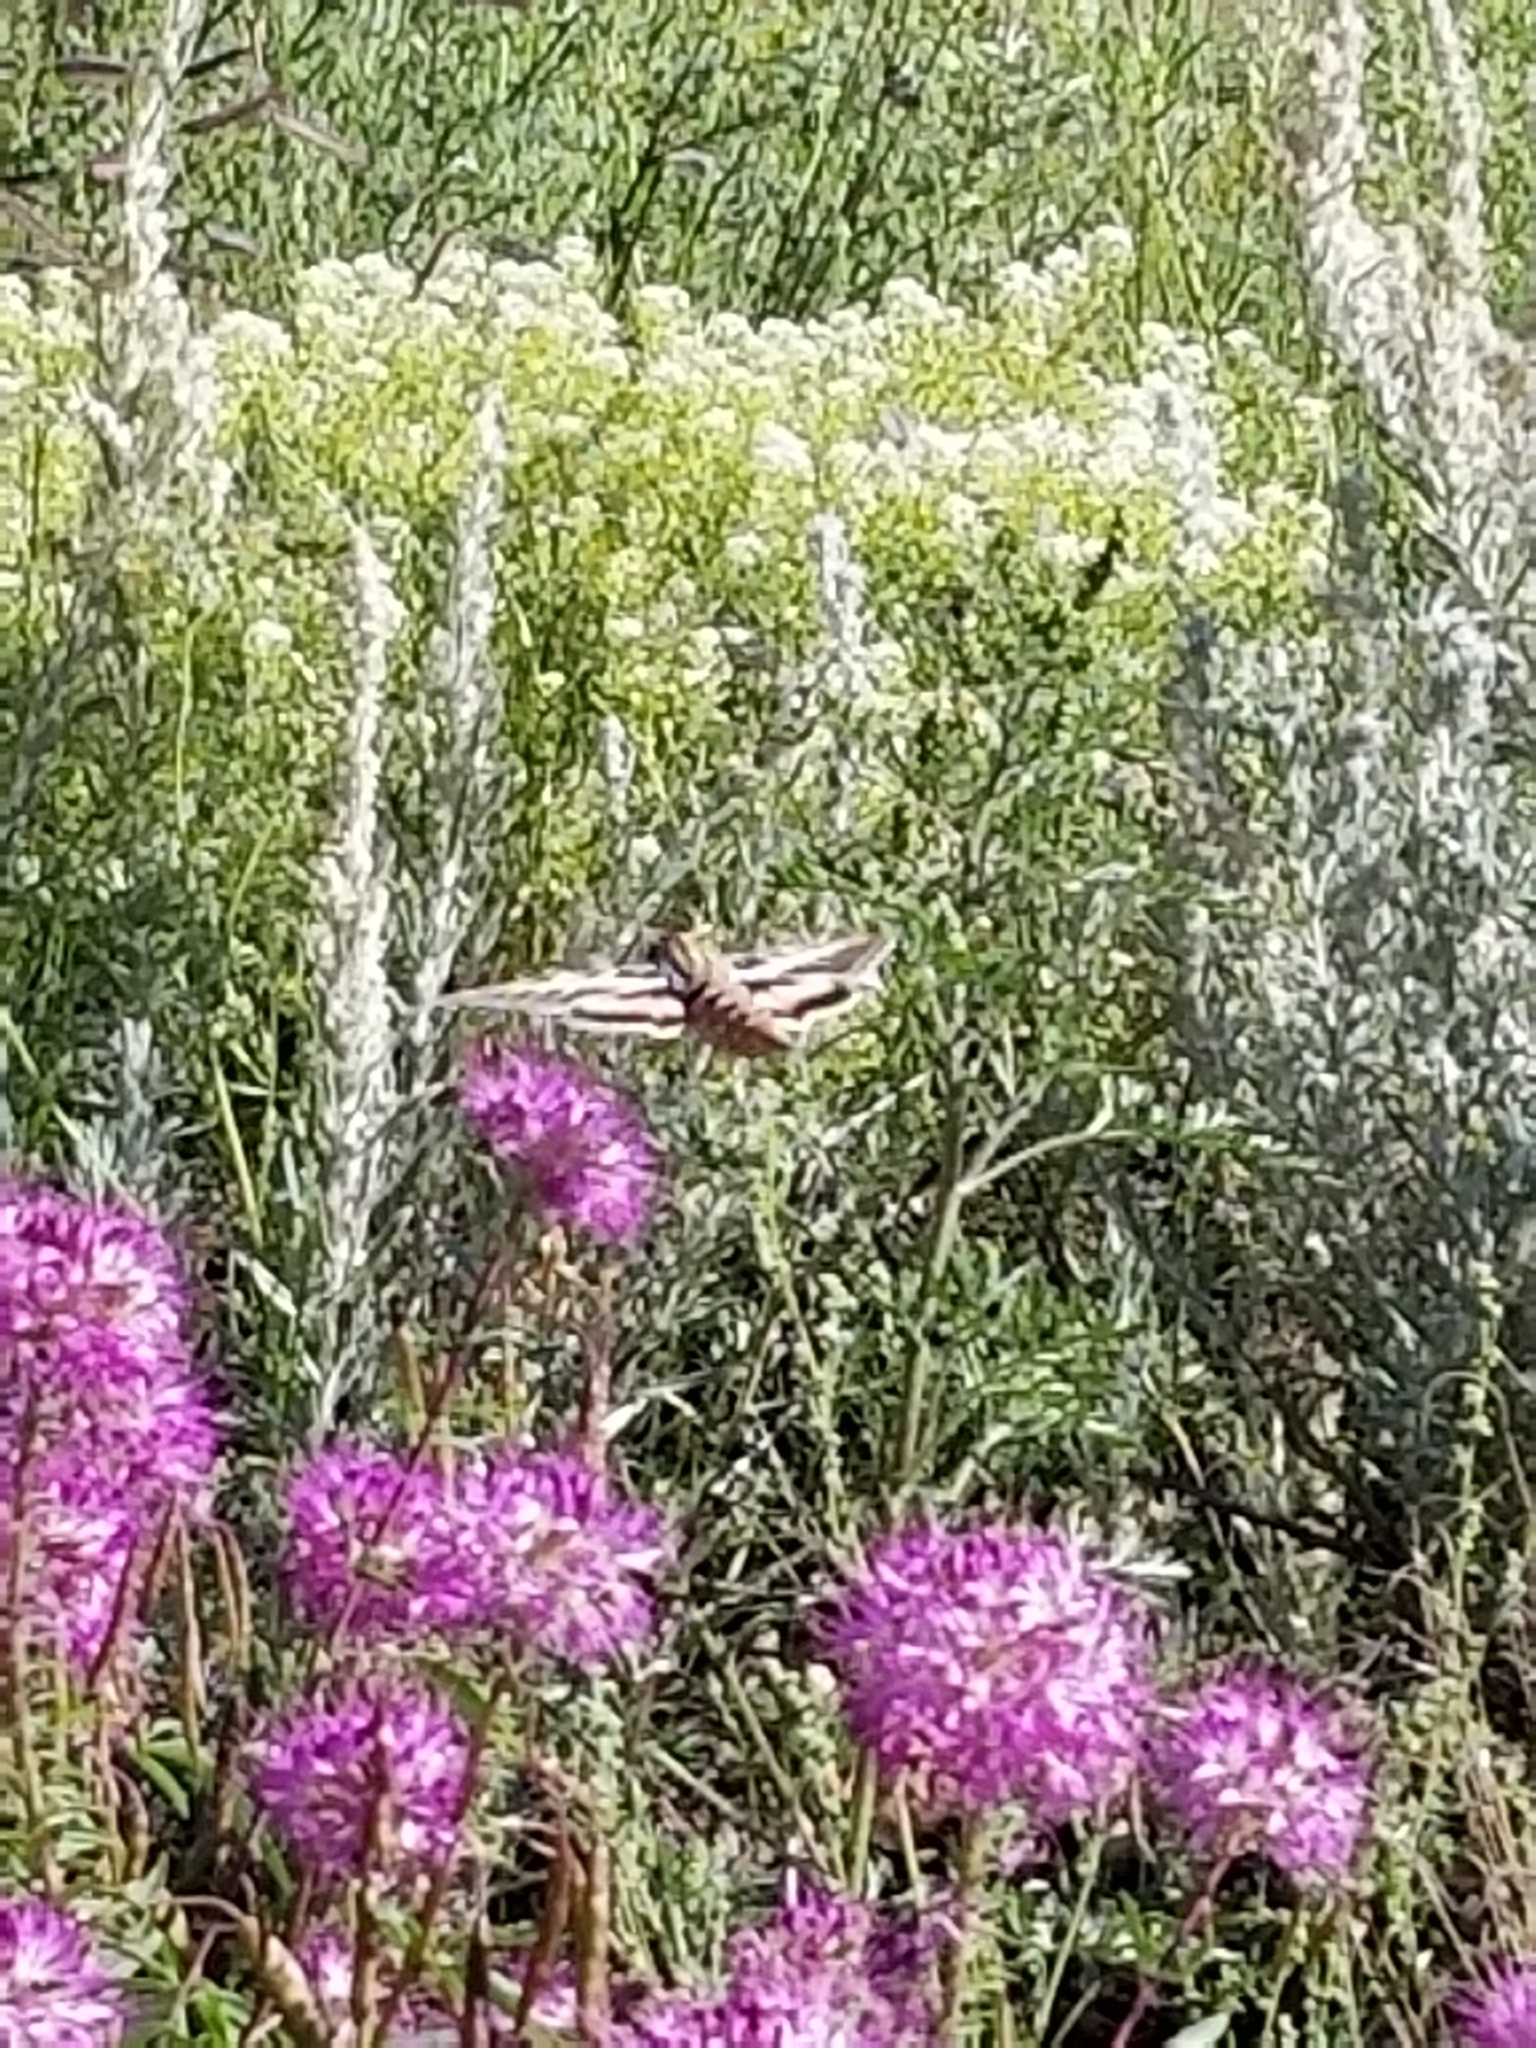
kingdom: Animalia
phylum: Arthropoda
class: Insecta
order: Lepidoptera
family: Sphingidae
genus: Hyles
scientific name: Hyles lineata
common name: White-lined sphinx
